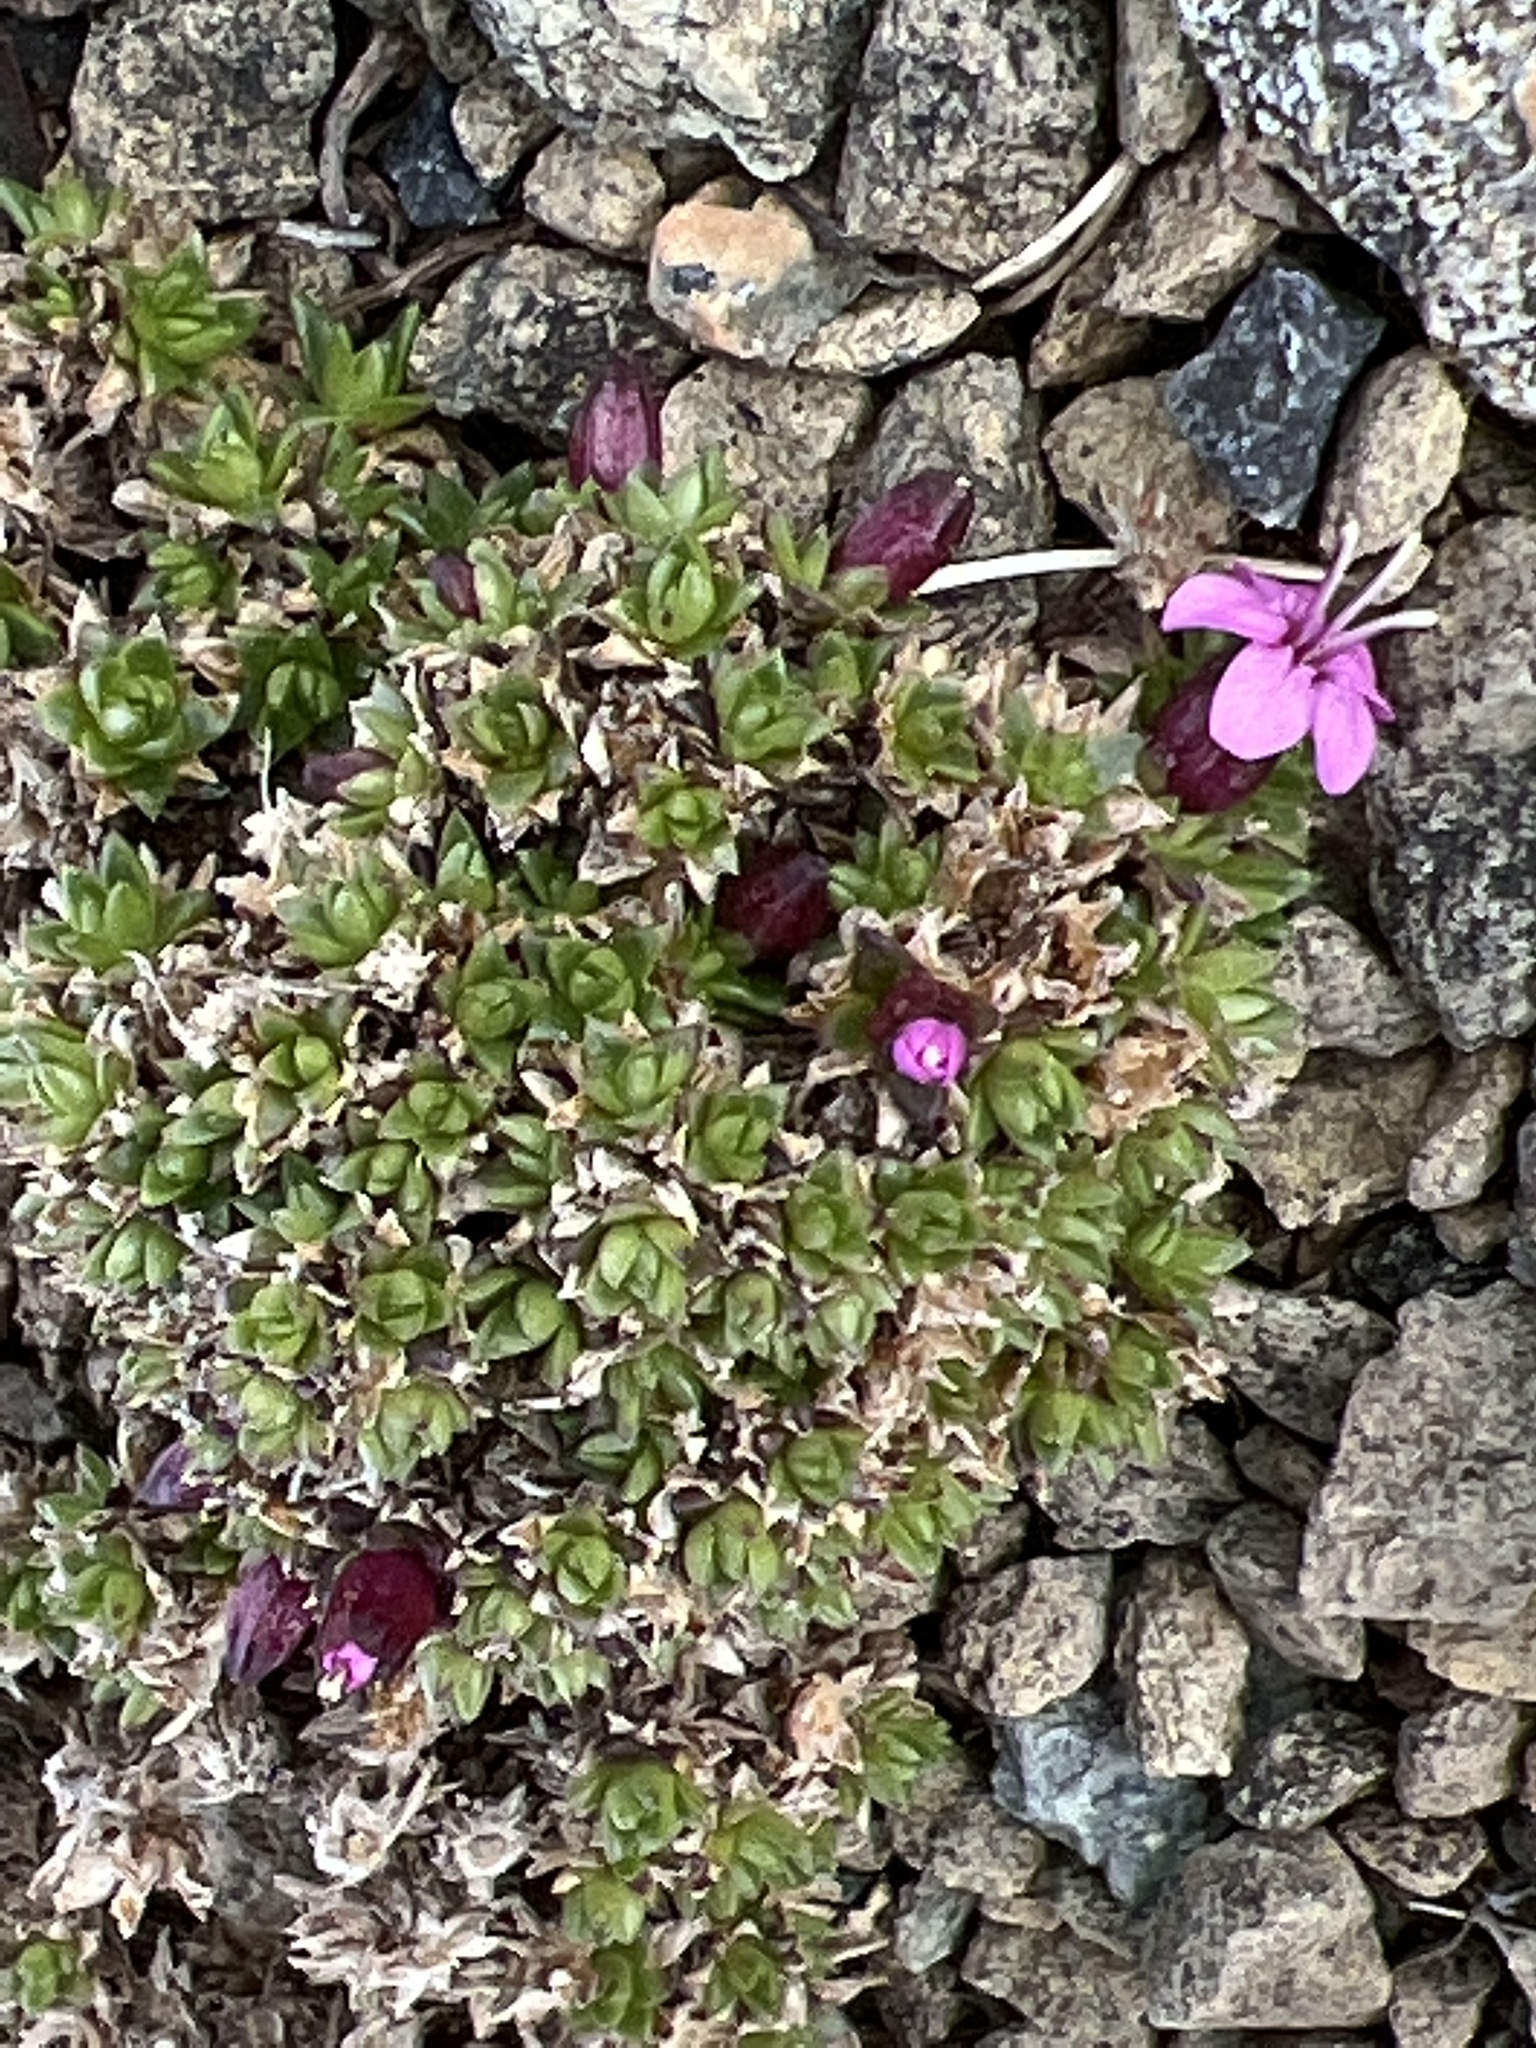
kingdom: Plantae
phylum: Tracheophyta
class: Magnoliopsida
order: Caryophyllales
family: Caryophyllaceae
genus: Silene
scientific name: Silene acaulis
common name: Moss campion
